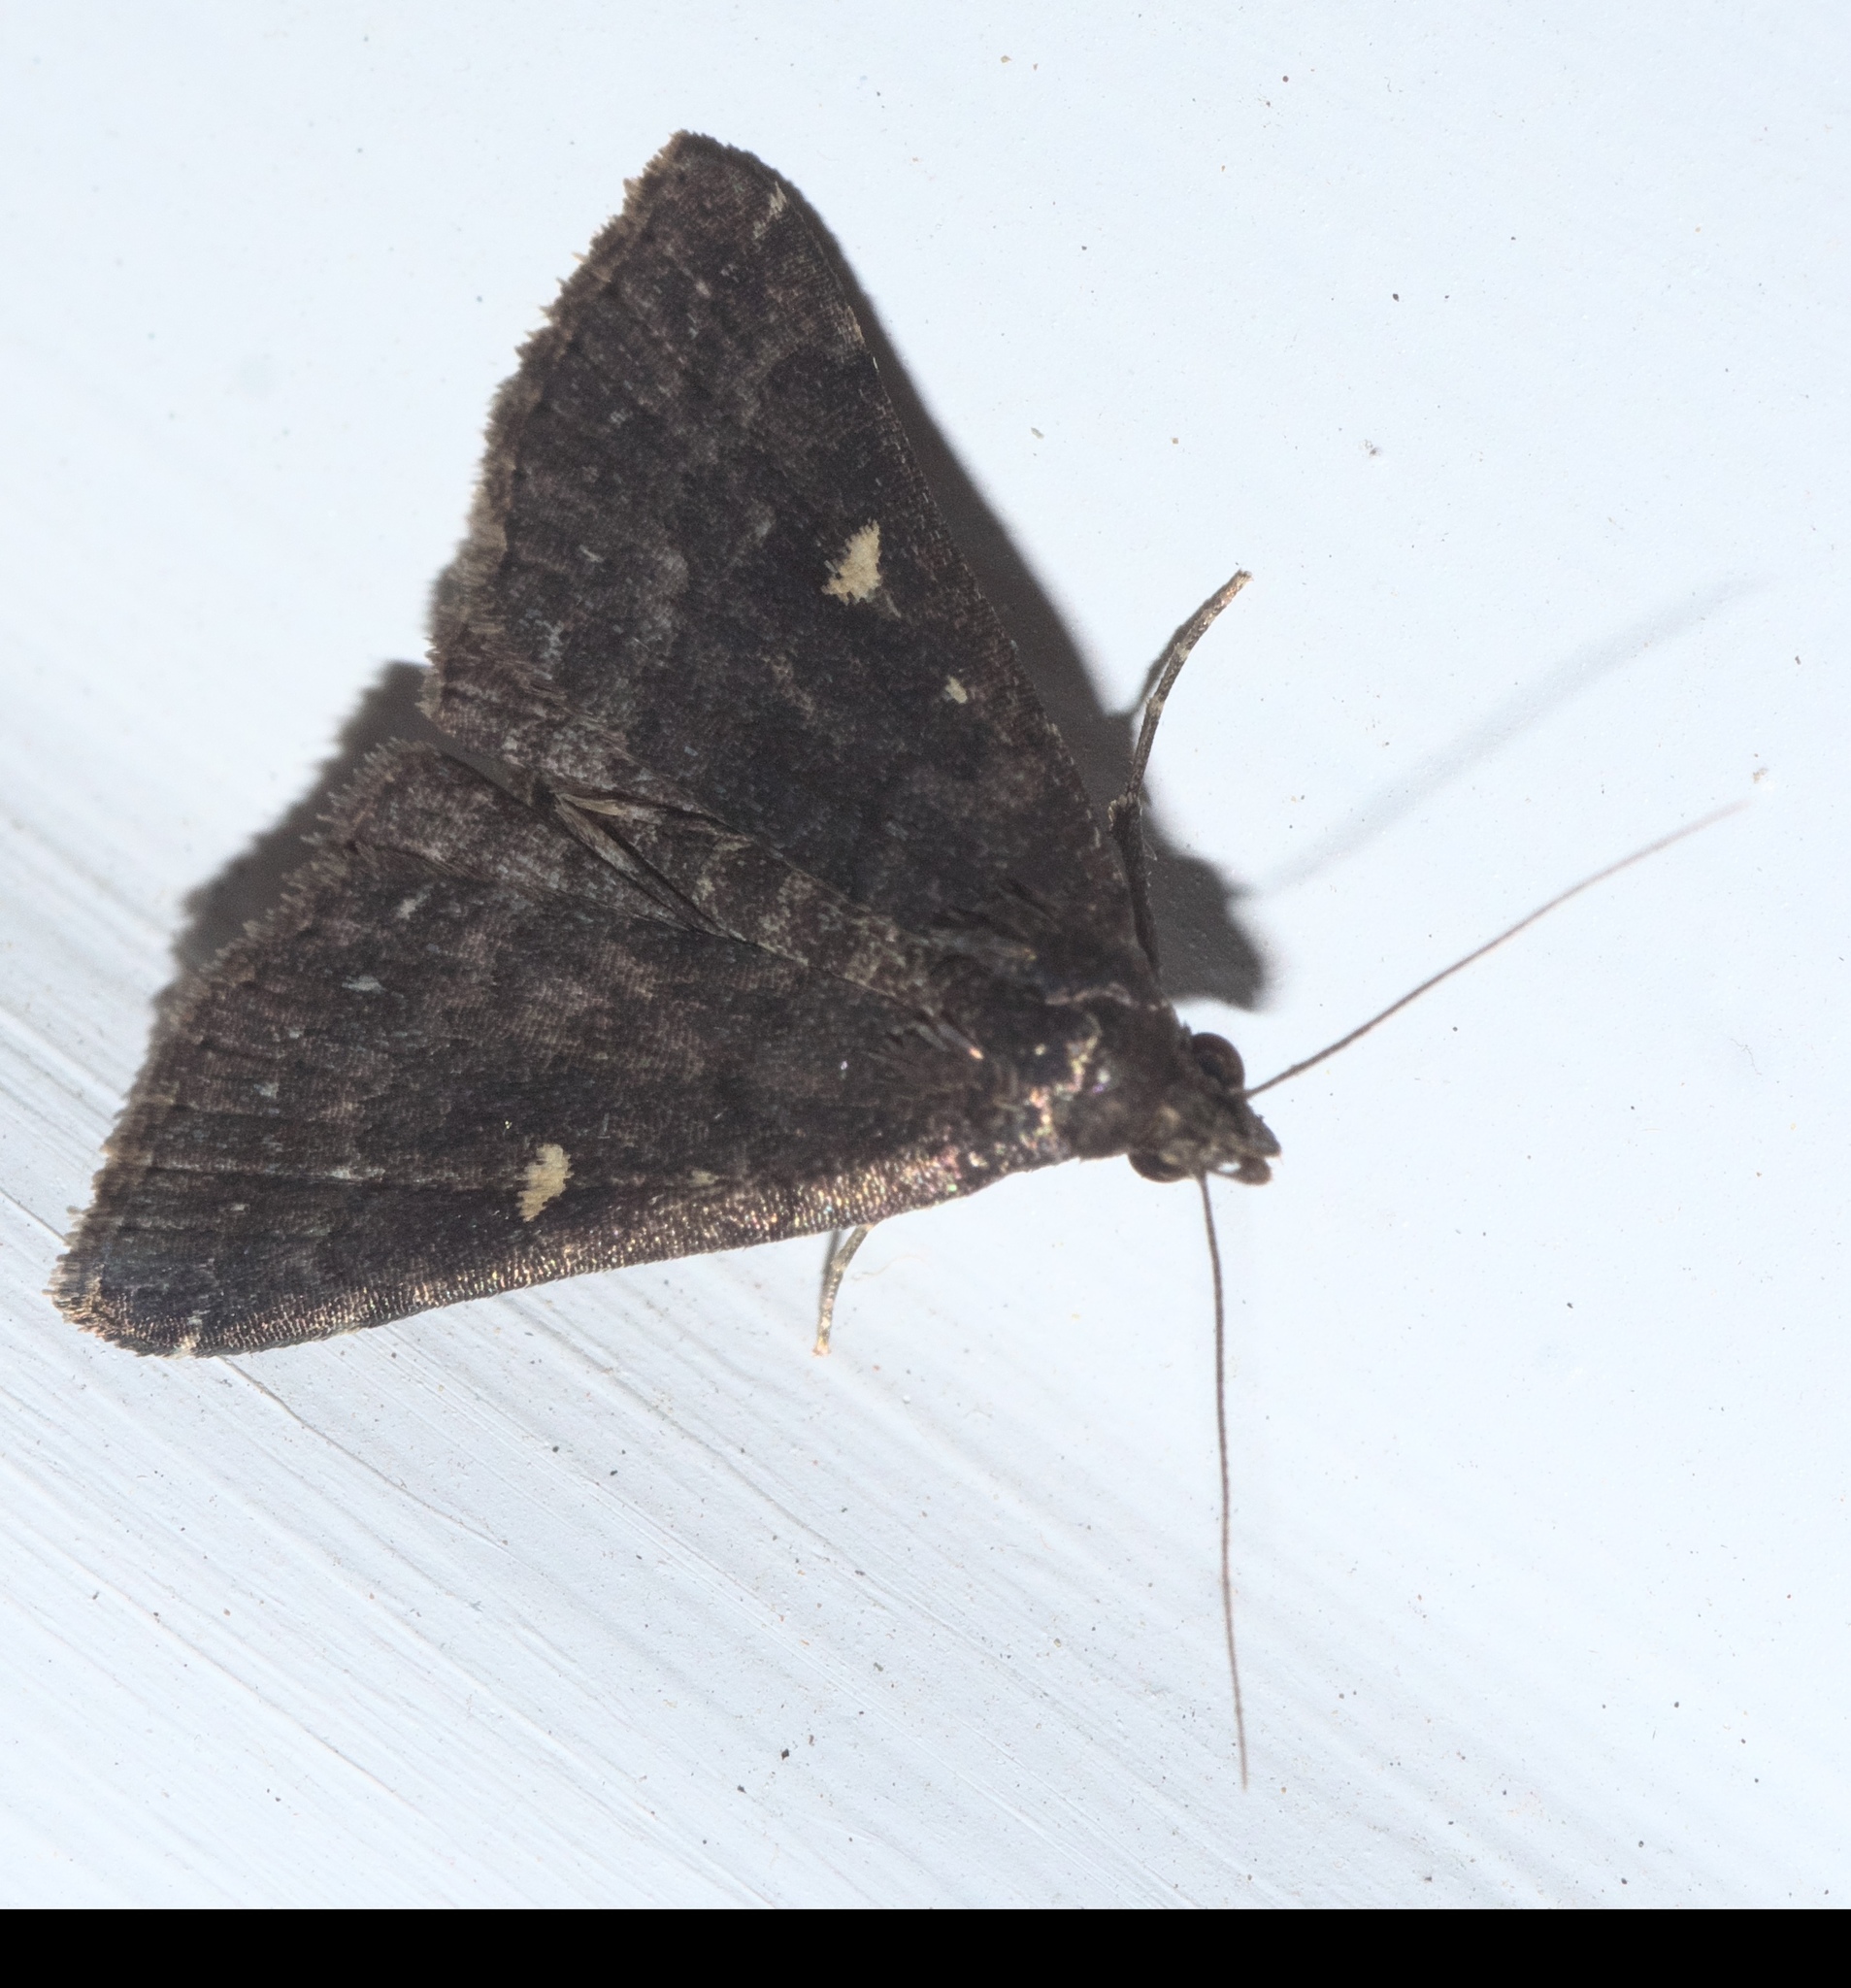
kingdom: Animalia
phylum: Arthropoda
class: Insecta
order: Lepidoptera
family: Erebidae
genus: Tetanolita
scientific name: Tetanolita mynesalis
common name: Smoky tetanolita moth
